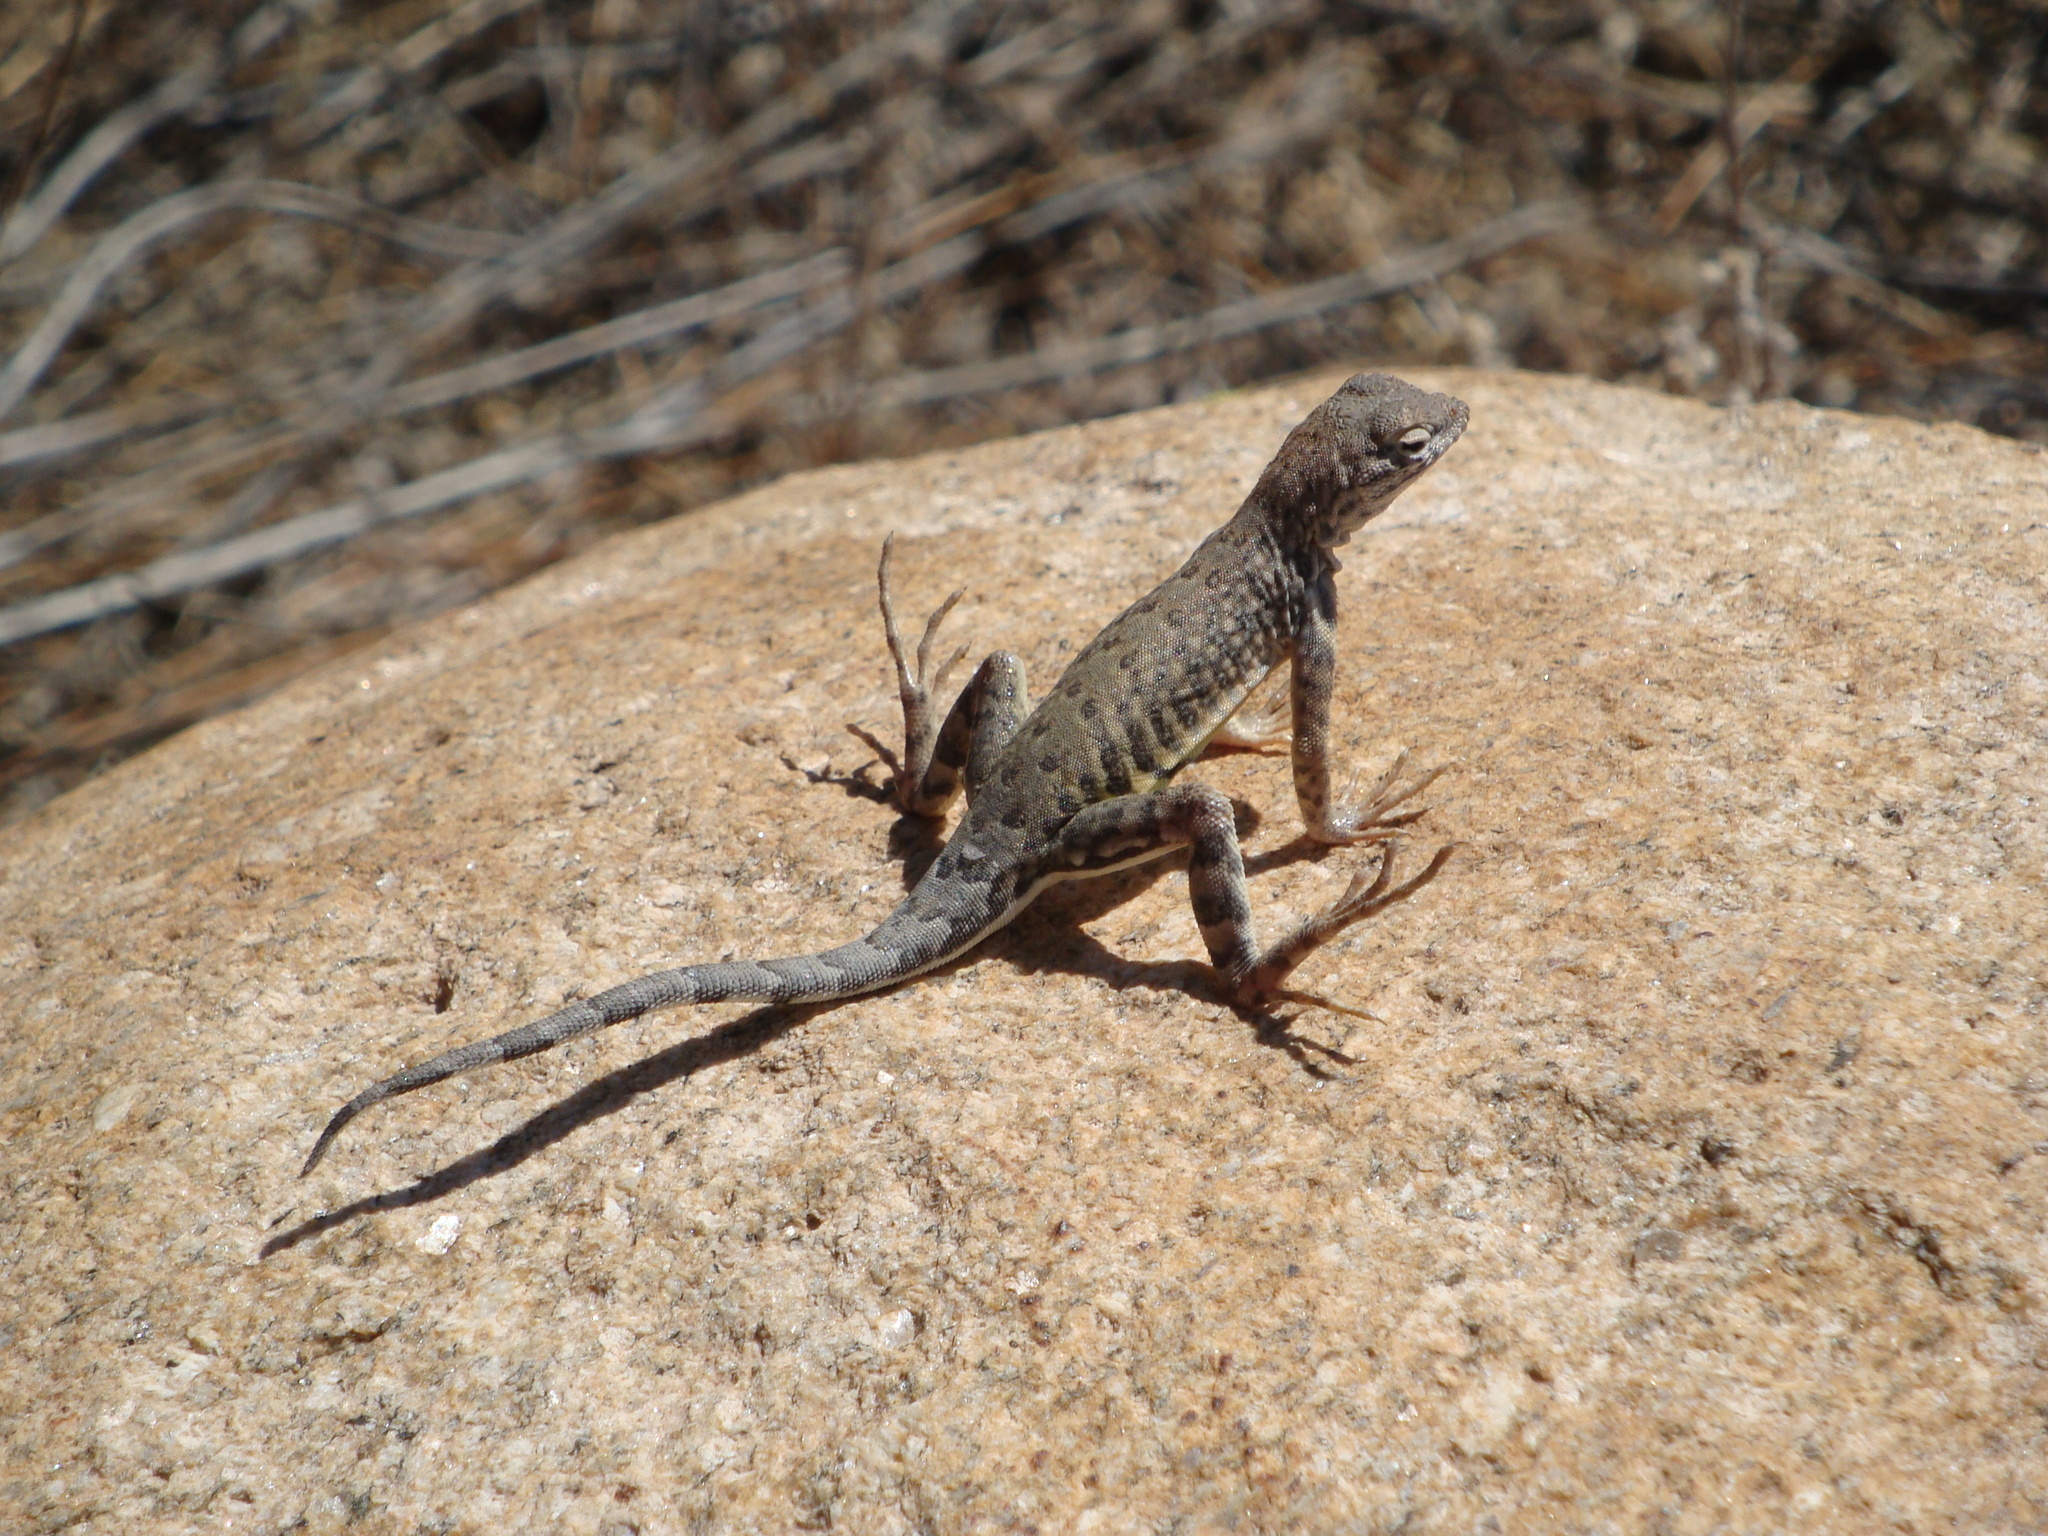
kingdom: Animalia
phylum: Chordata
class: Squamata
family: Phrynosomatidae
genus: Cophosaurus
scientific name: Cophosaurus texanus
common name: Greater earless lizard
